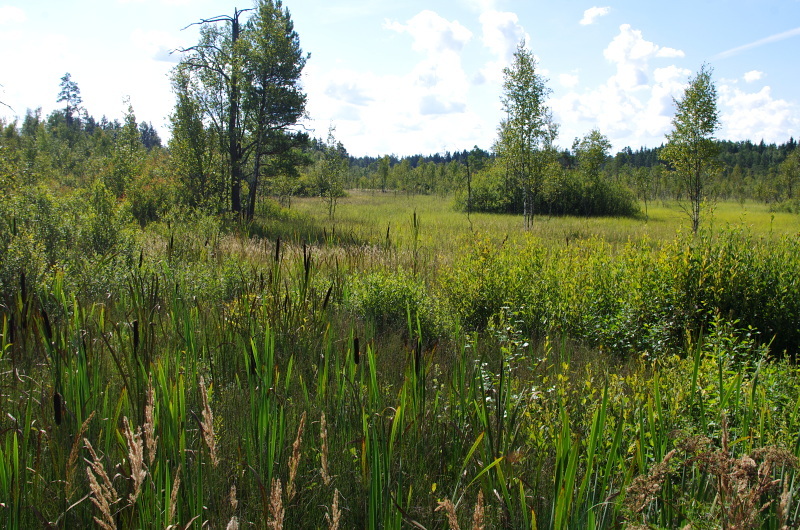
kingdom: Plantae
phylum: Tracheophyta
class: Liliopsida
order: Poales
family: Typhaceae
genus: Typha
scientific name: Typha latifolia
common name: Broadleaf cattail
